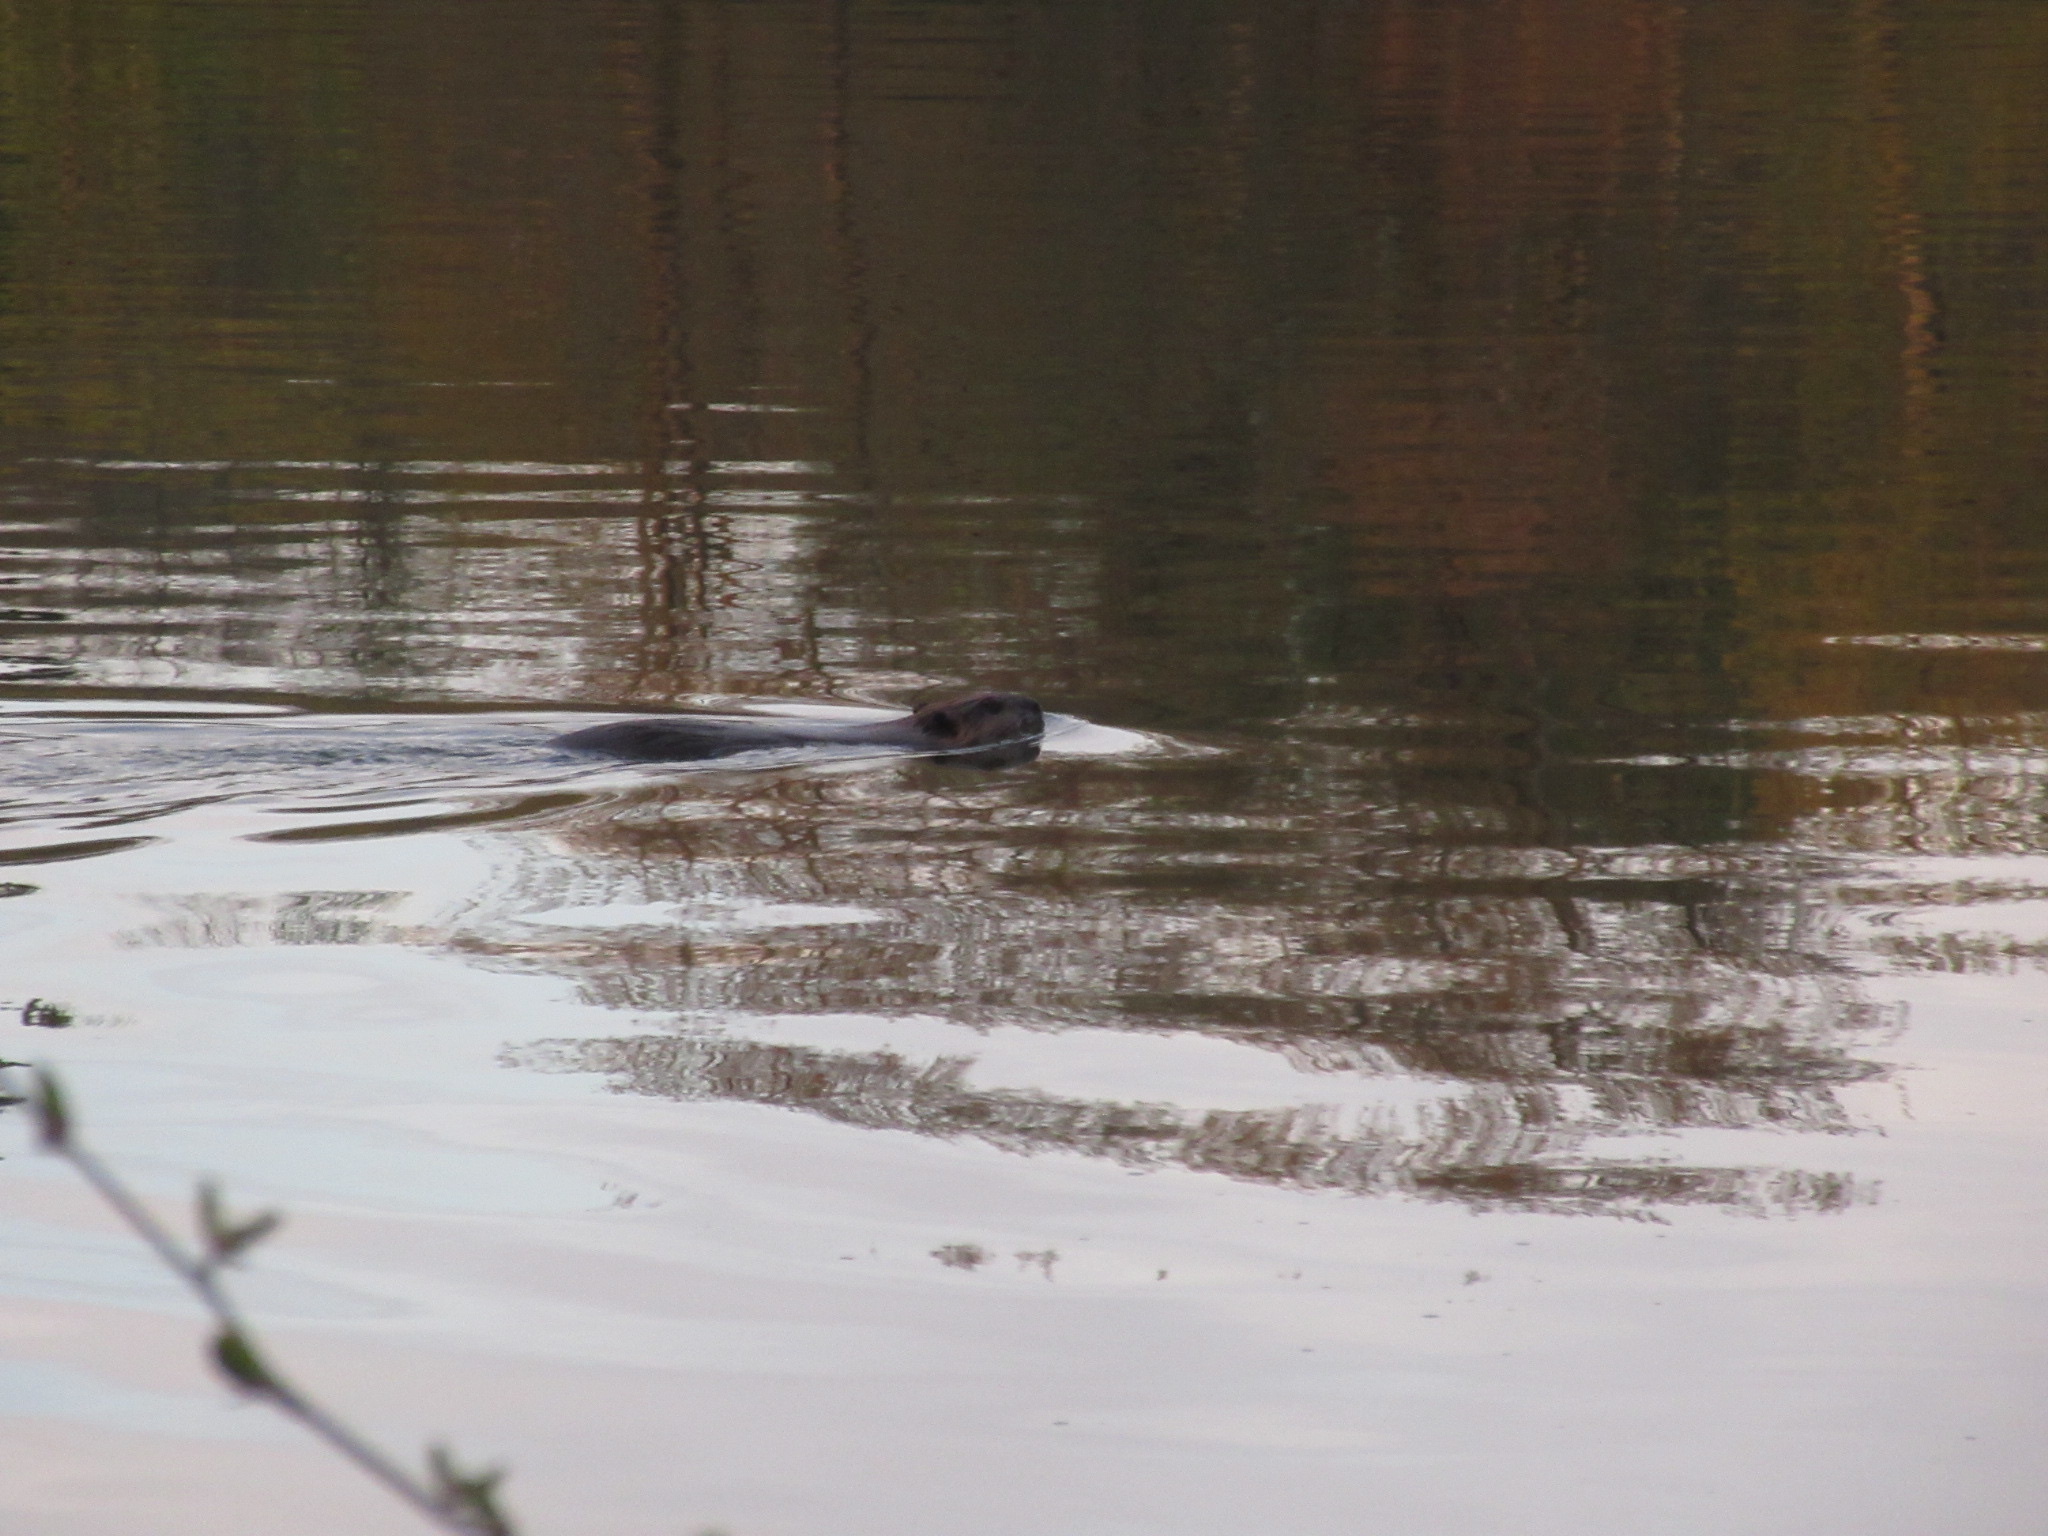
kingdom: Animalia
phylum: Chordata
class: Mammalia
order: Rodentia
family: Castoridae
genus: Castor
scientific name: Castor canadensis
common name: American beaver
